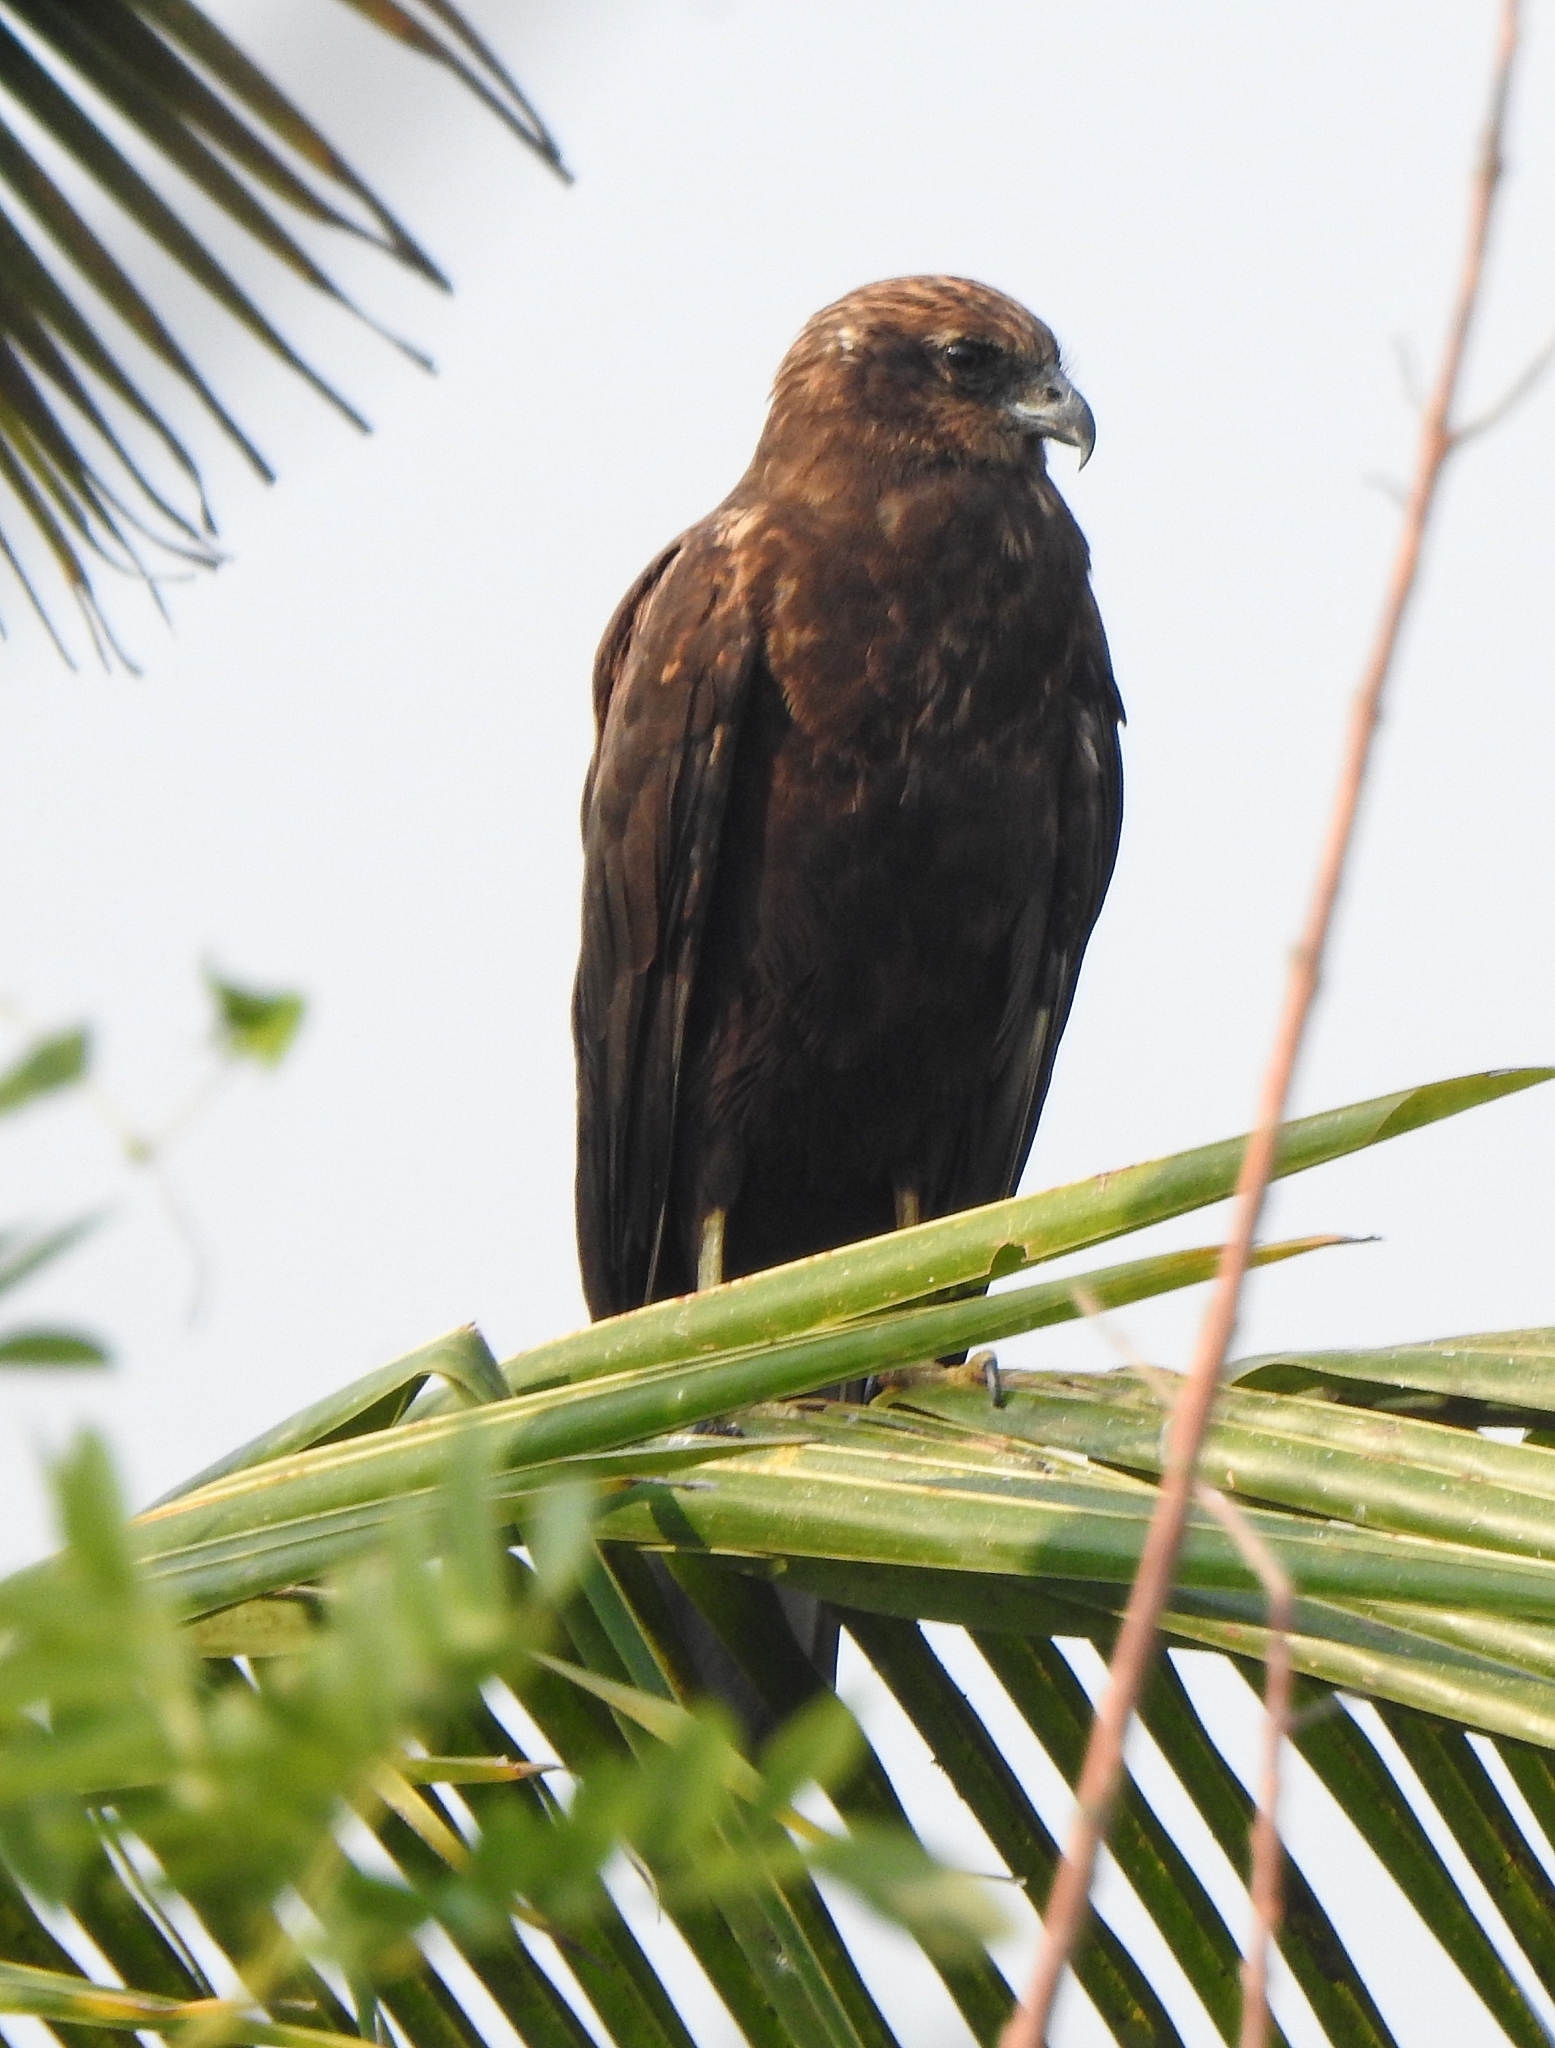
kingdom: Animalia
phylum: Chordata
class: Aves
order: Accipitriformes
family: Accipitridae
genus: Circus
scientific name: Circus aeruginosus
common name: Western marsh harrier
